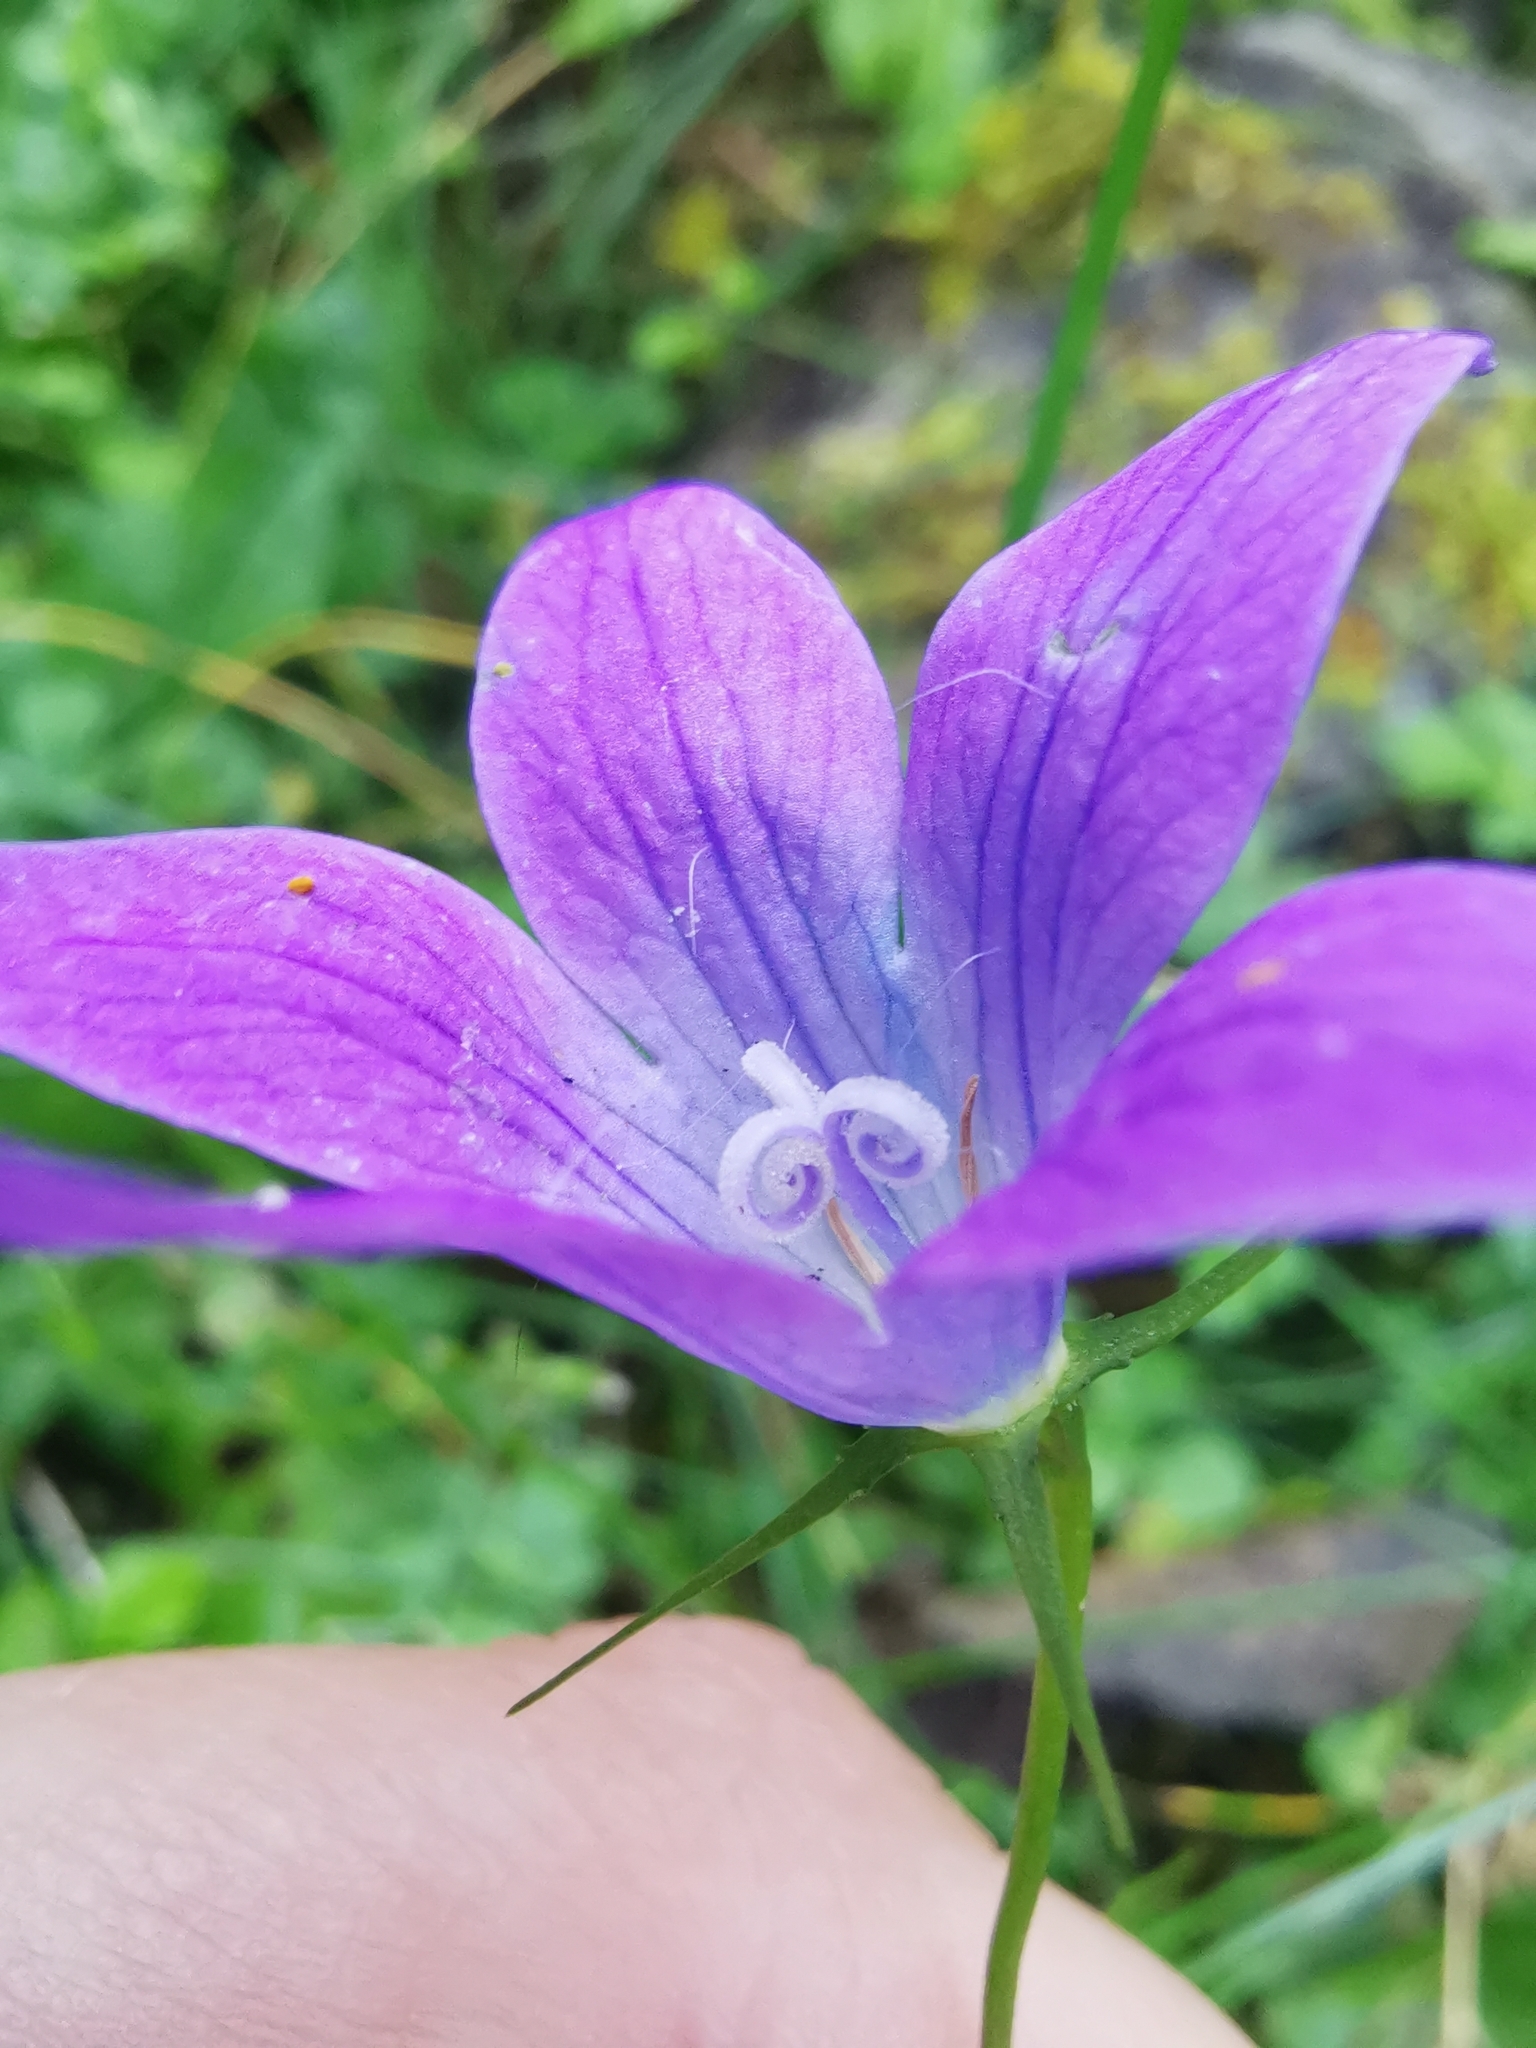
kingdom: Plantae
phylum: Tracheophyta
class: Magnoliopsida
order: Asterales
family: Campanulaceae
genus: Campanula
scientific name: Campanula patula
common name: Spreading bellflower
